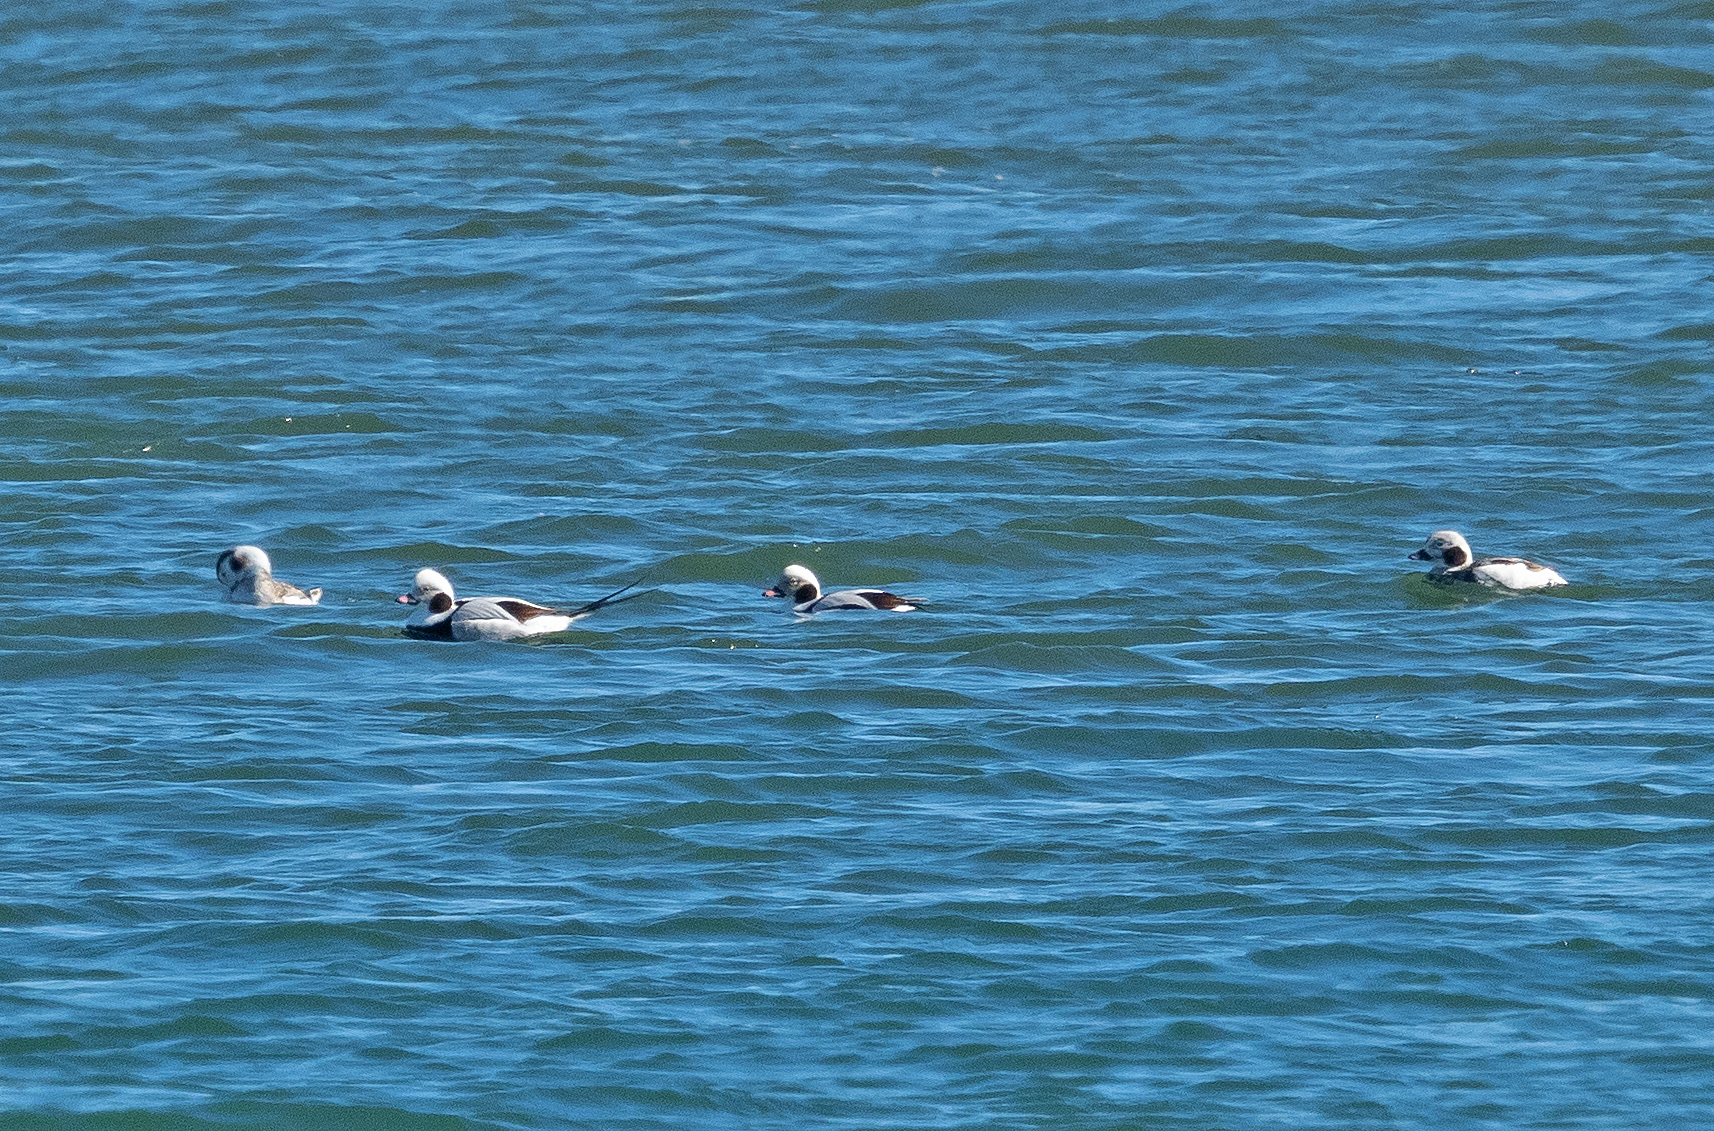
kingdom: Animalia
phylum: Chordata
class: Aves
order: Anseriformes
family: Anatidae
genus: Clangula
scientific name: Clangula hyemalis
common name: Long-tailed duck
